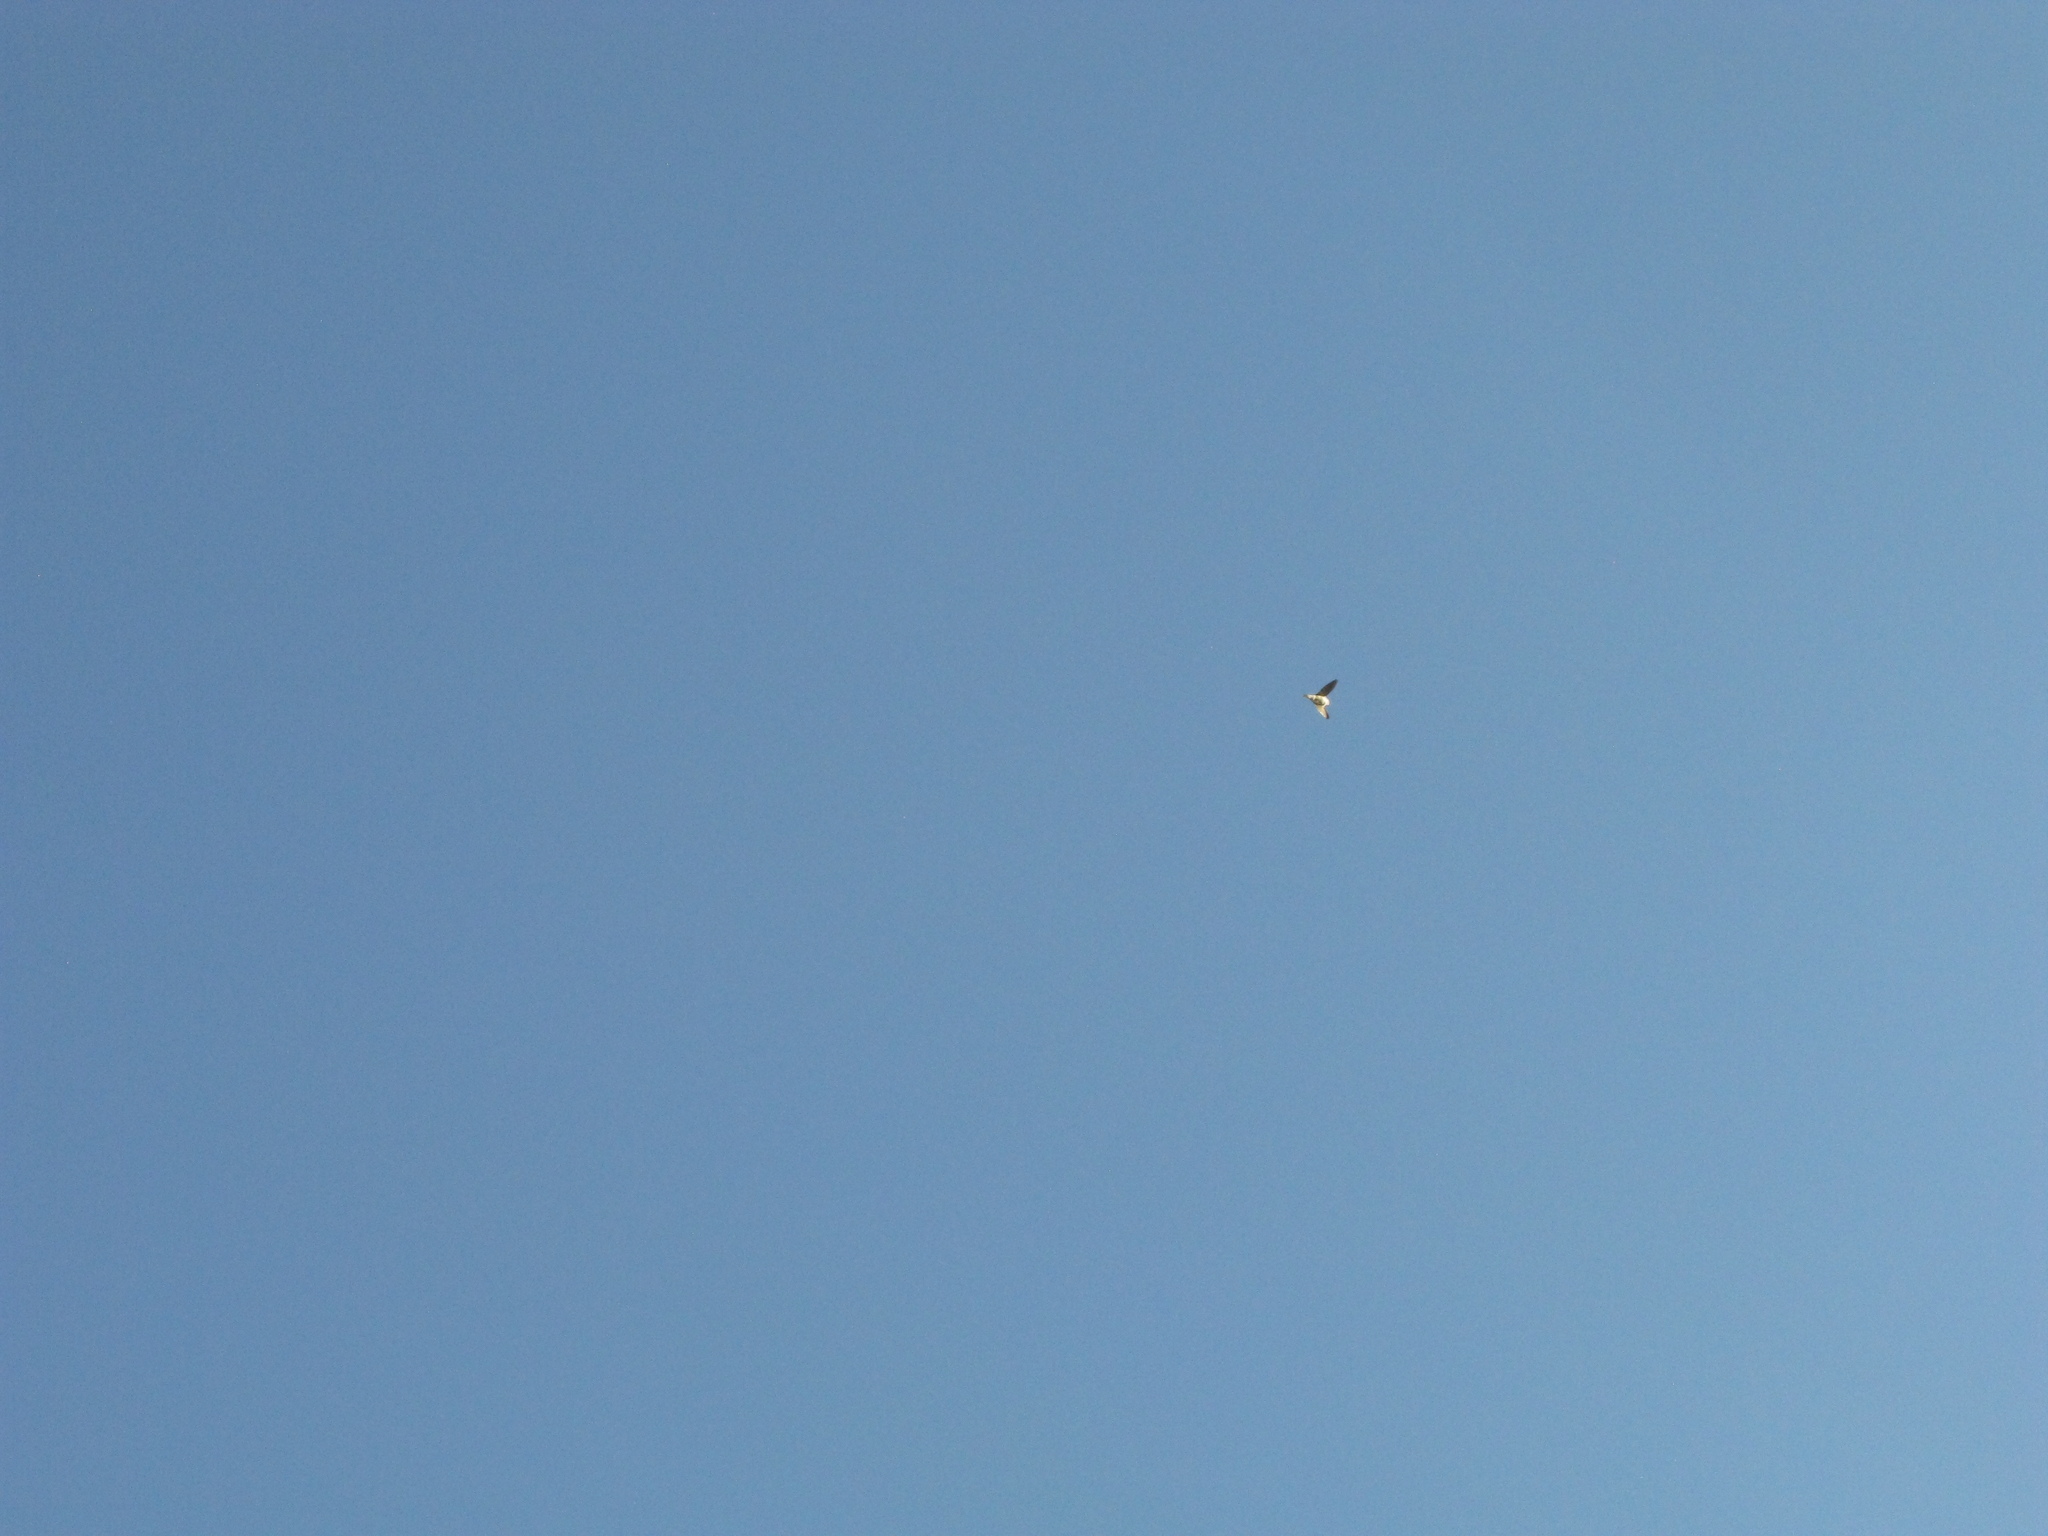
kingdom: Animalia
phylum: Chordata
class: Aves
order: Passeriformes
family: Hirundinidae
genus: Delichon
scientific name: Delichon urbicum
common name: Common house martin
